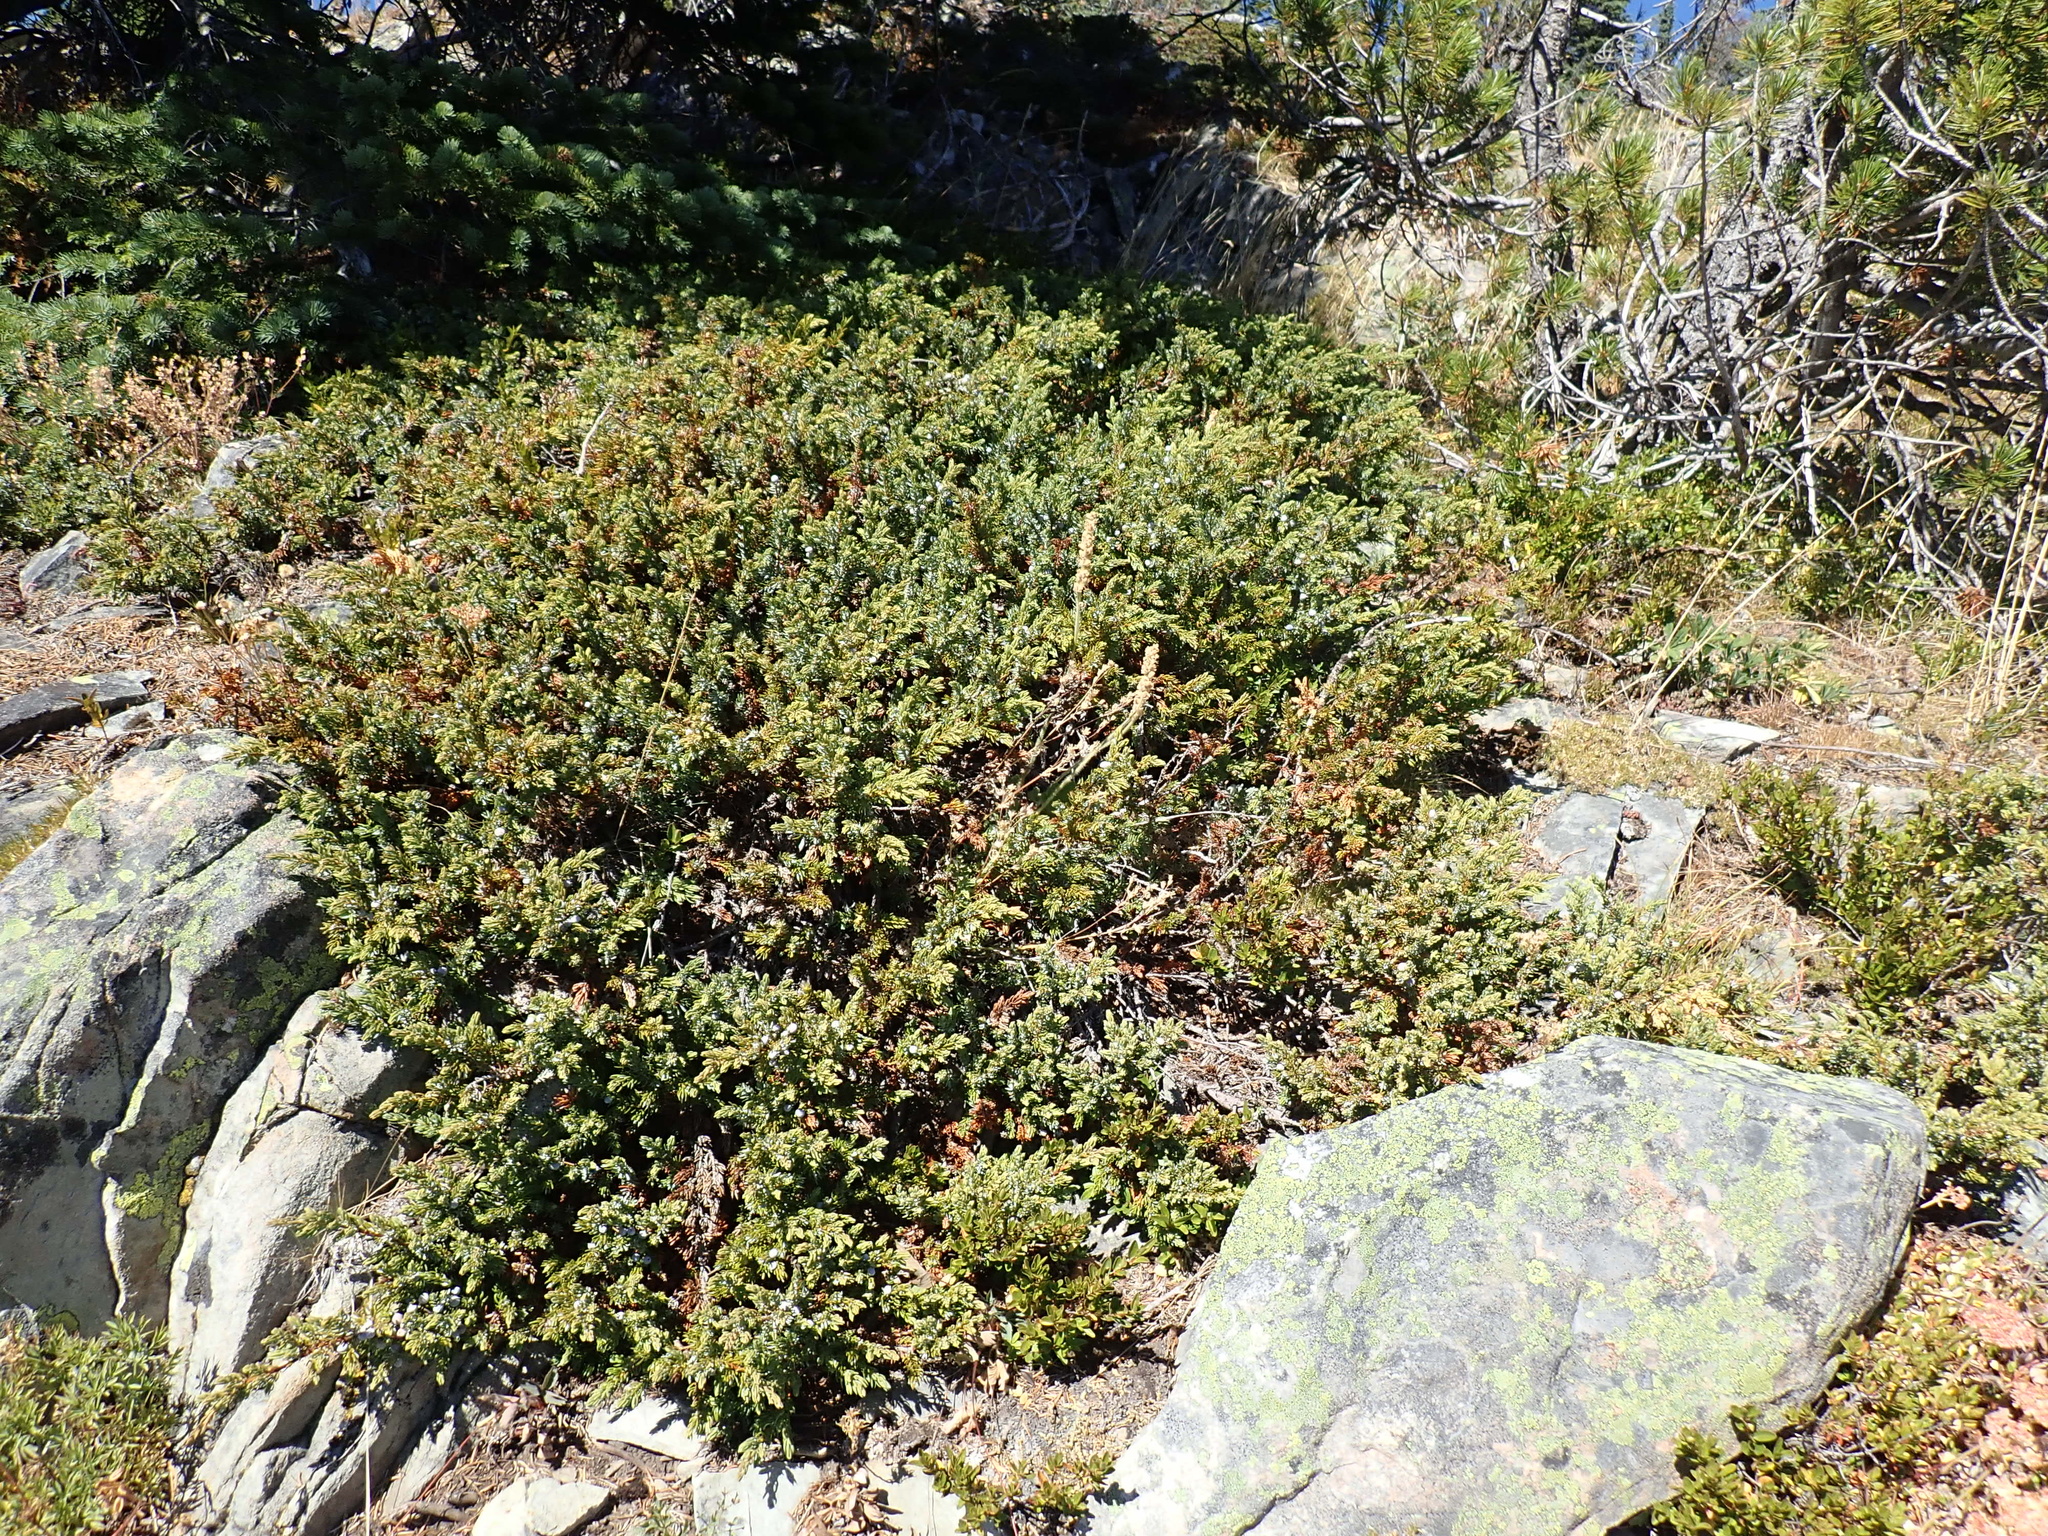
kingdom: Plantae
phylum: Tracheophyta
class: Pinopsida
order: Pinales
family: Cupressaceae
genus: Juniperus
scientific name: Juniperus communis
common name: Common juniper
